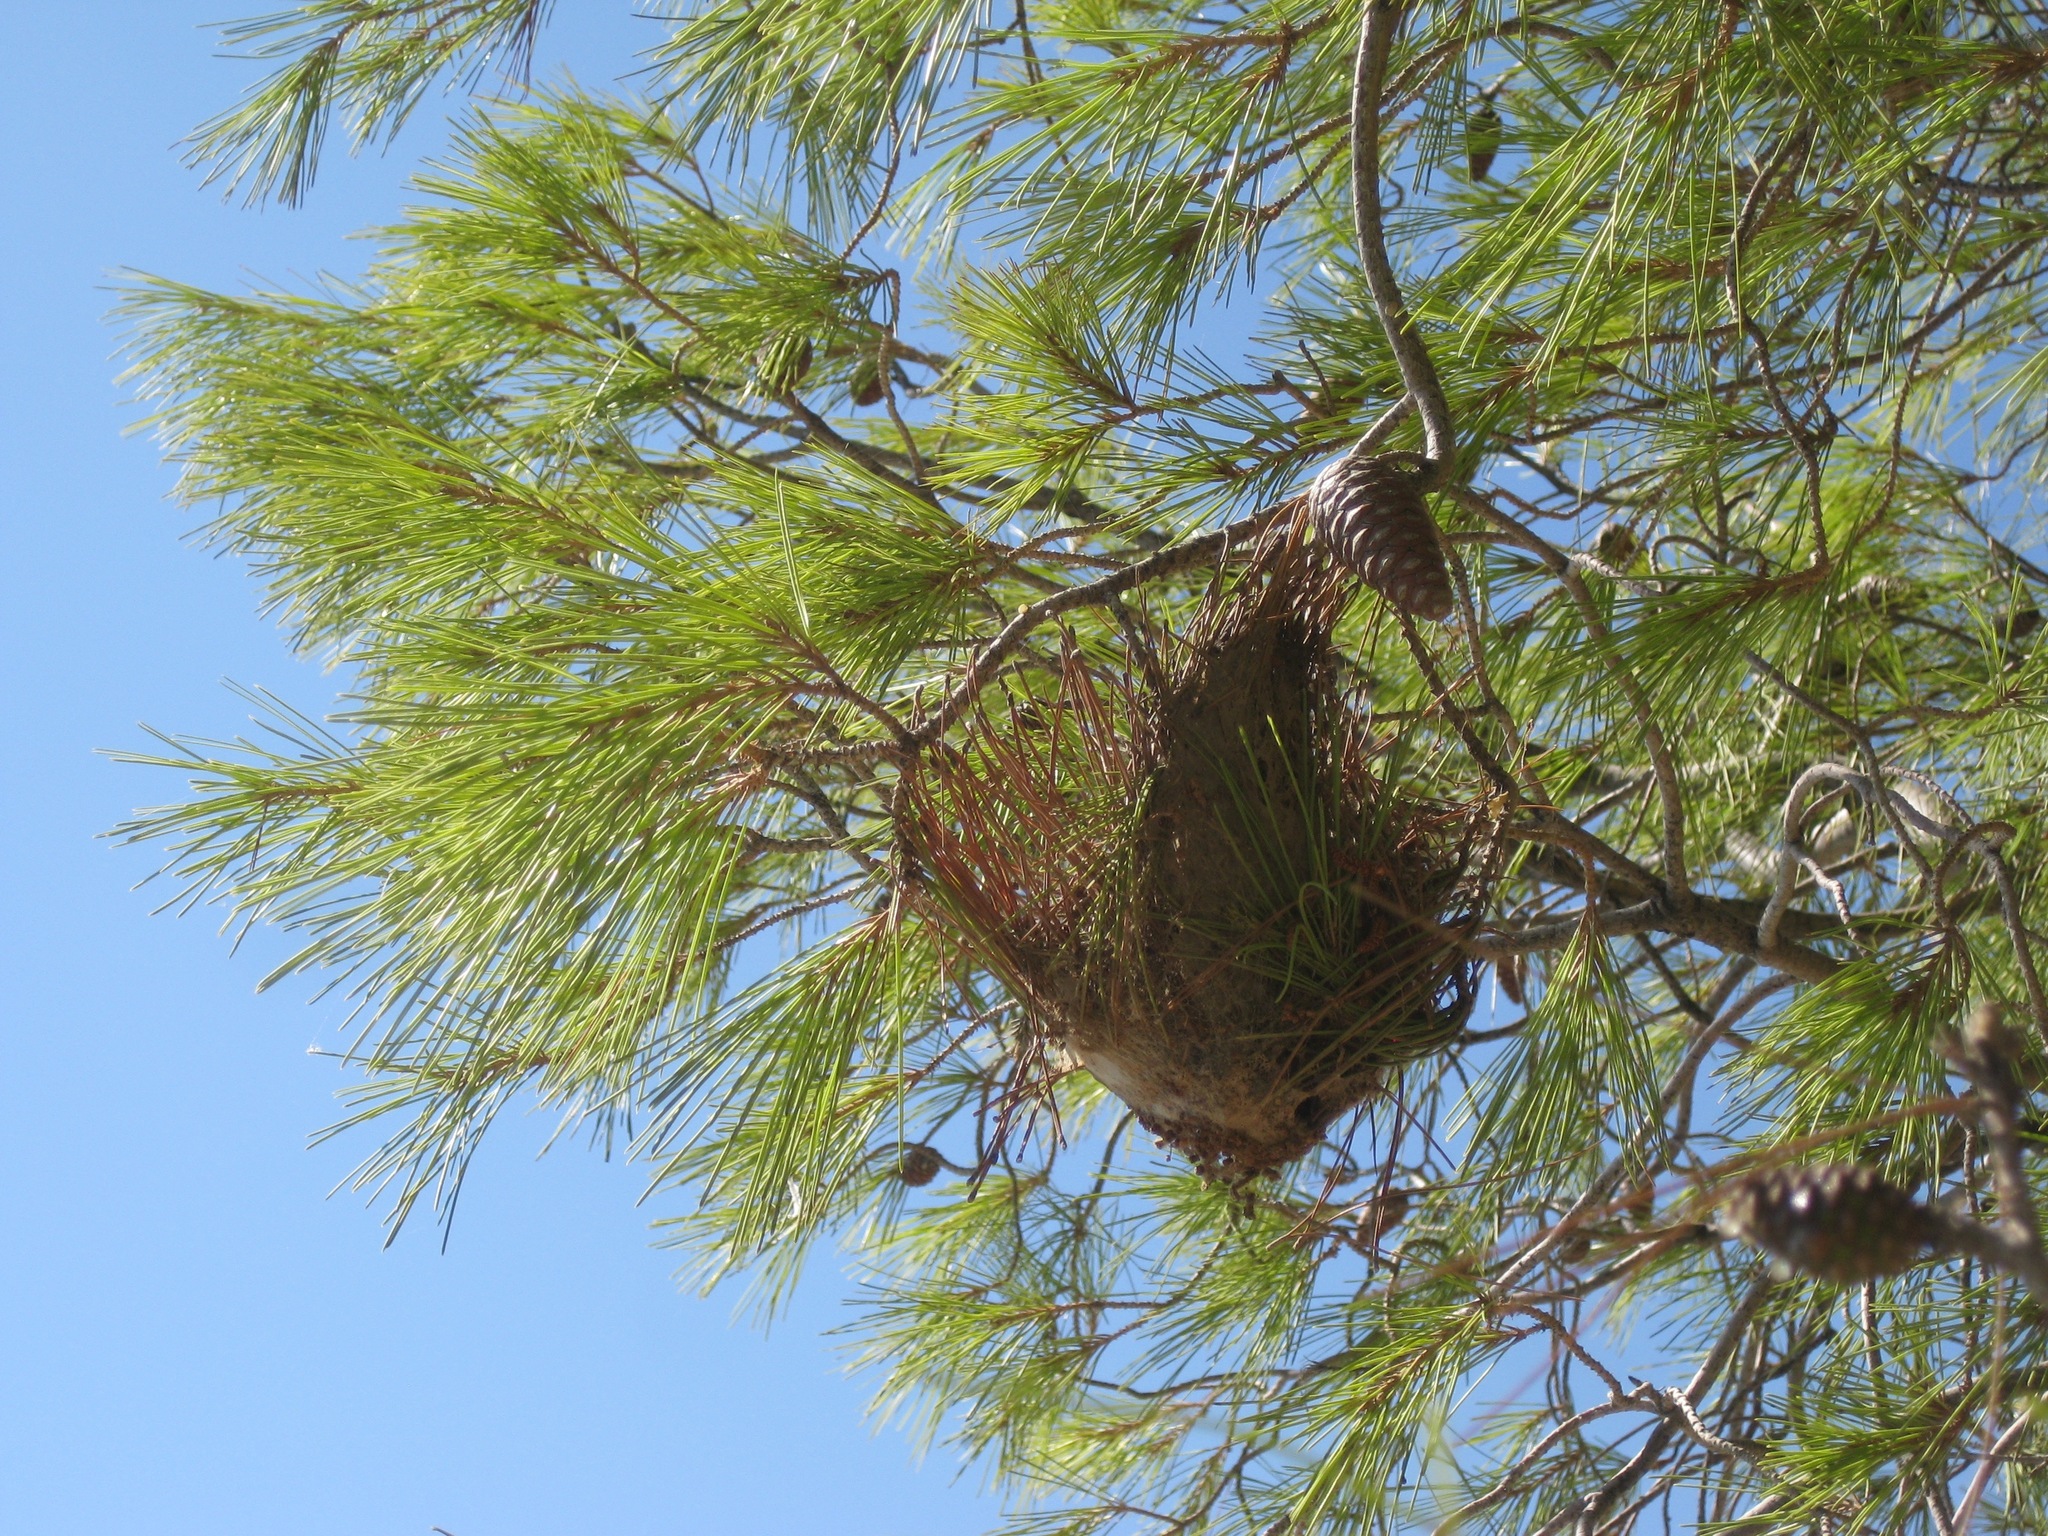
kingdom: Animalia
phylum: Arthropoda
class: Insecta
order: Lepidoptera
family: Notodontidae
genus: Thaumetopoea
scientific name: Thaumetopoea pityocampa
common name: Pine processionary
